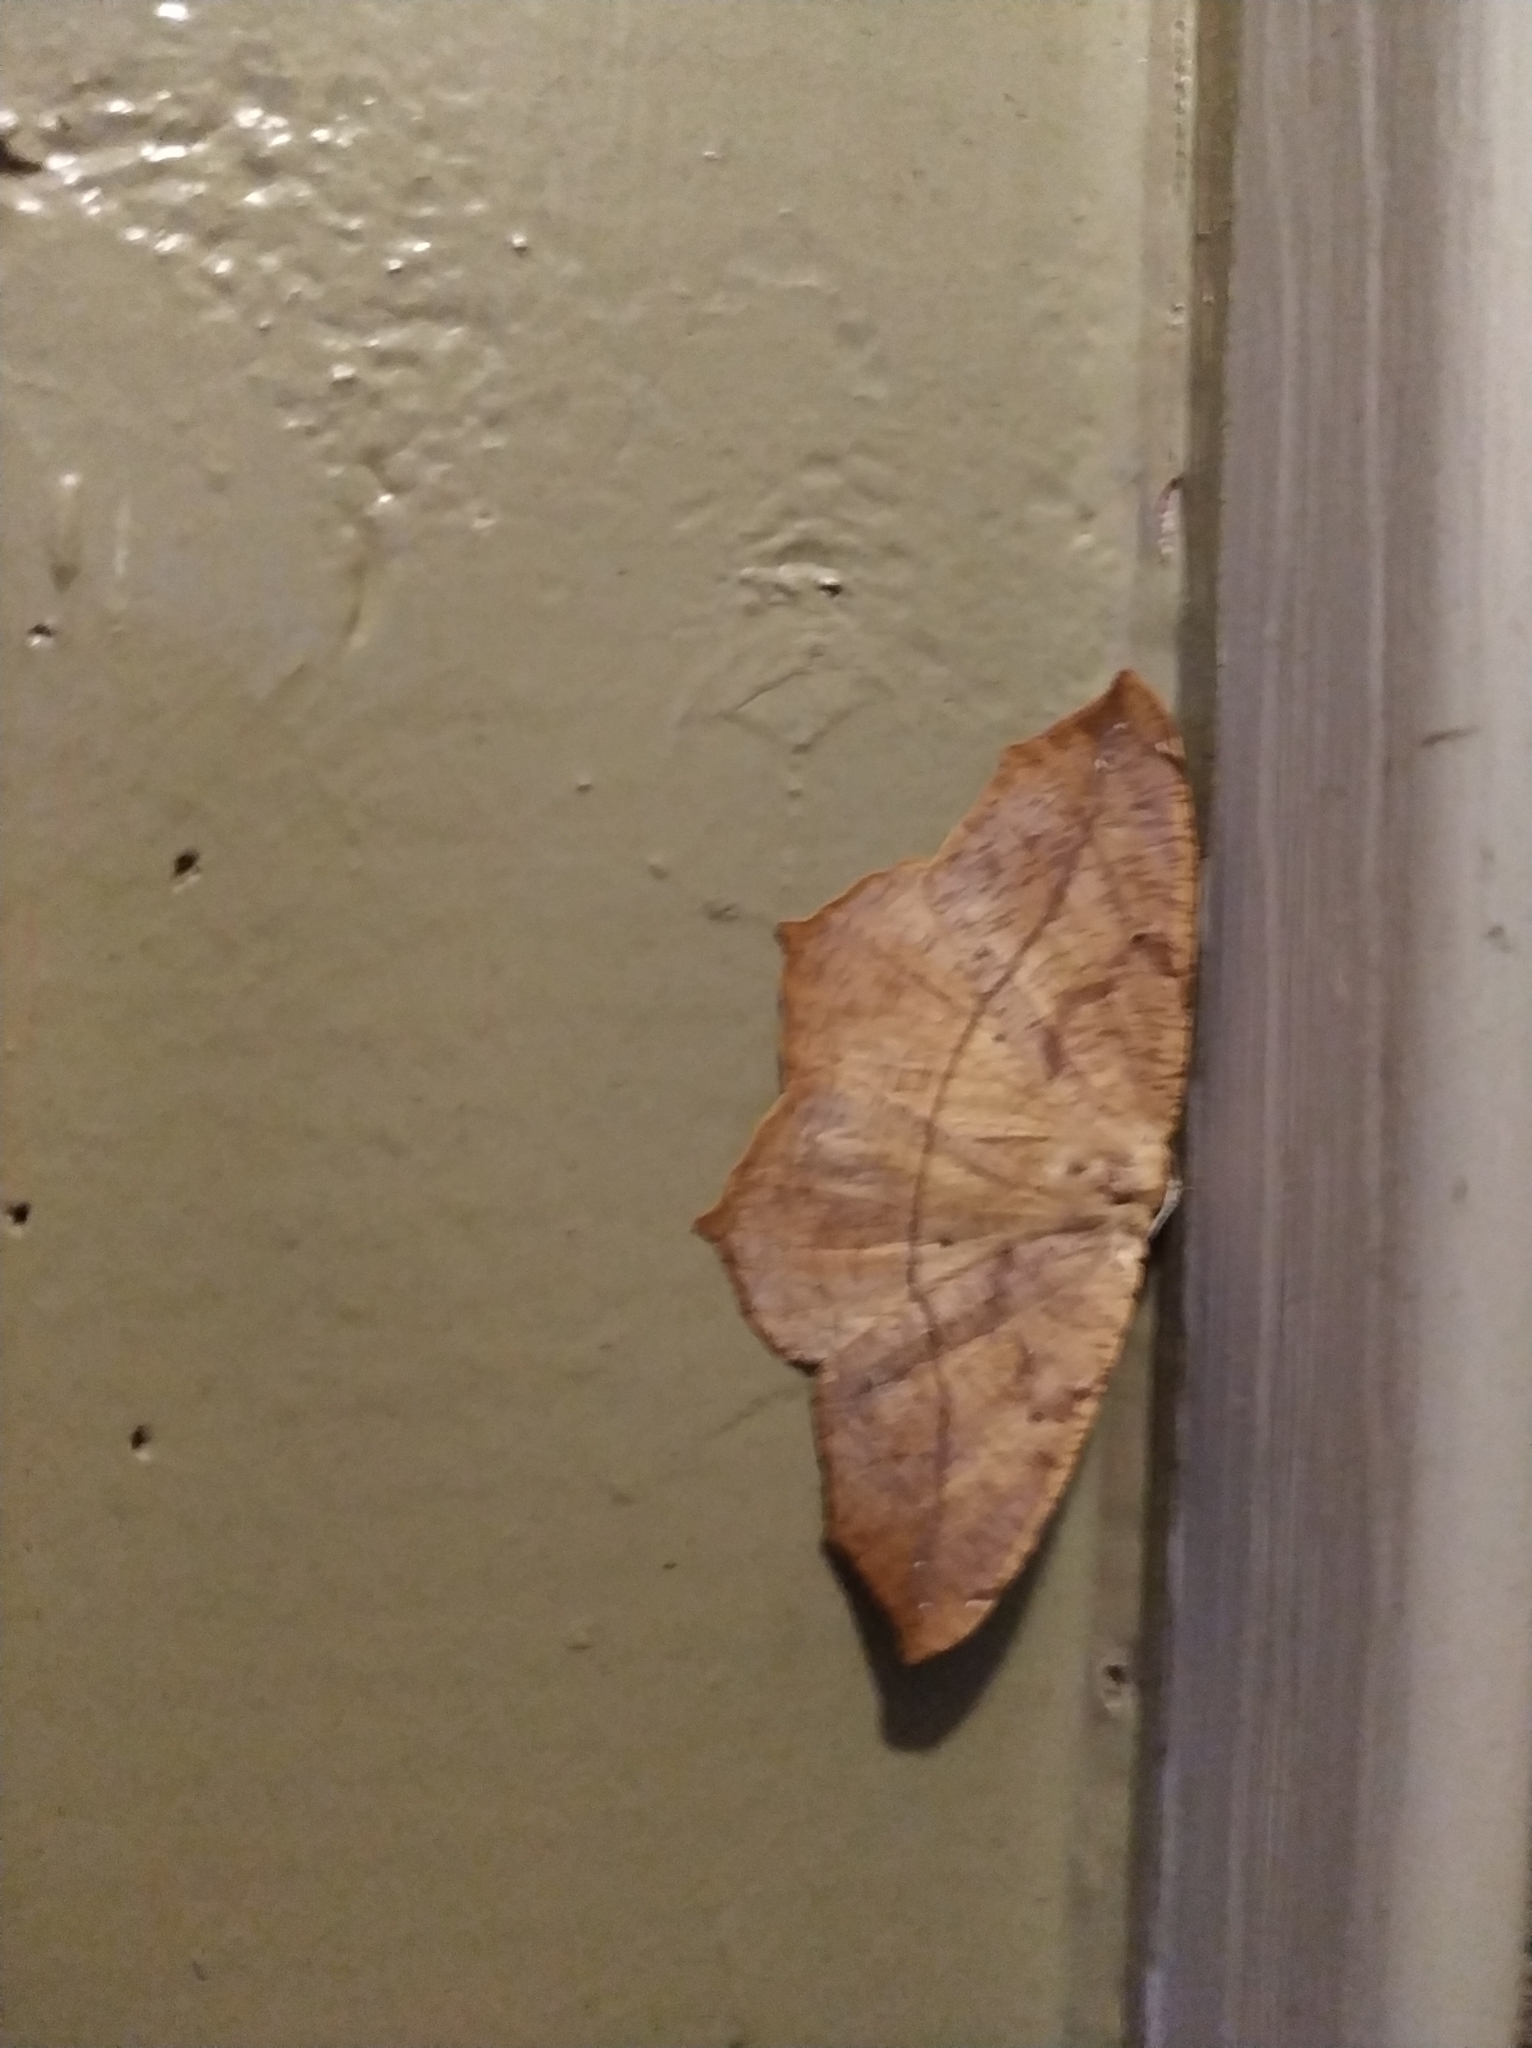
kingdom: Animalia
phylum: Arthropoda
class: Insecta
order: Lepidoptera
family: Geometridae
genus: Prochoerodes
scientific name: Prochoerodes lineola
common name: Large maple spanworm
